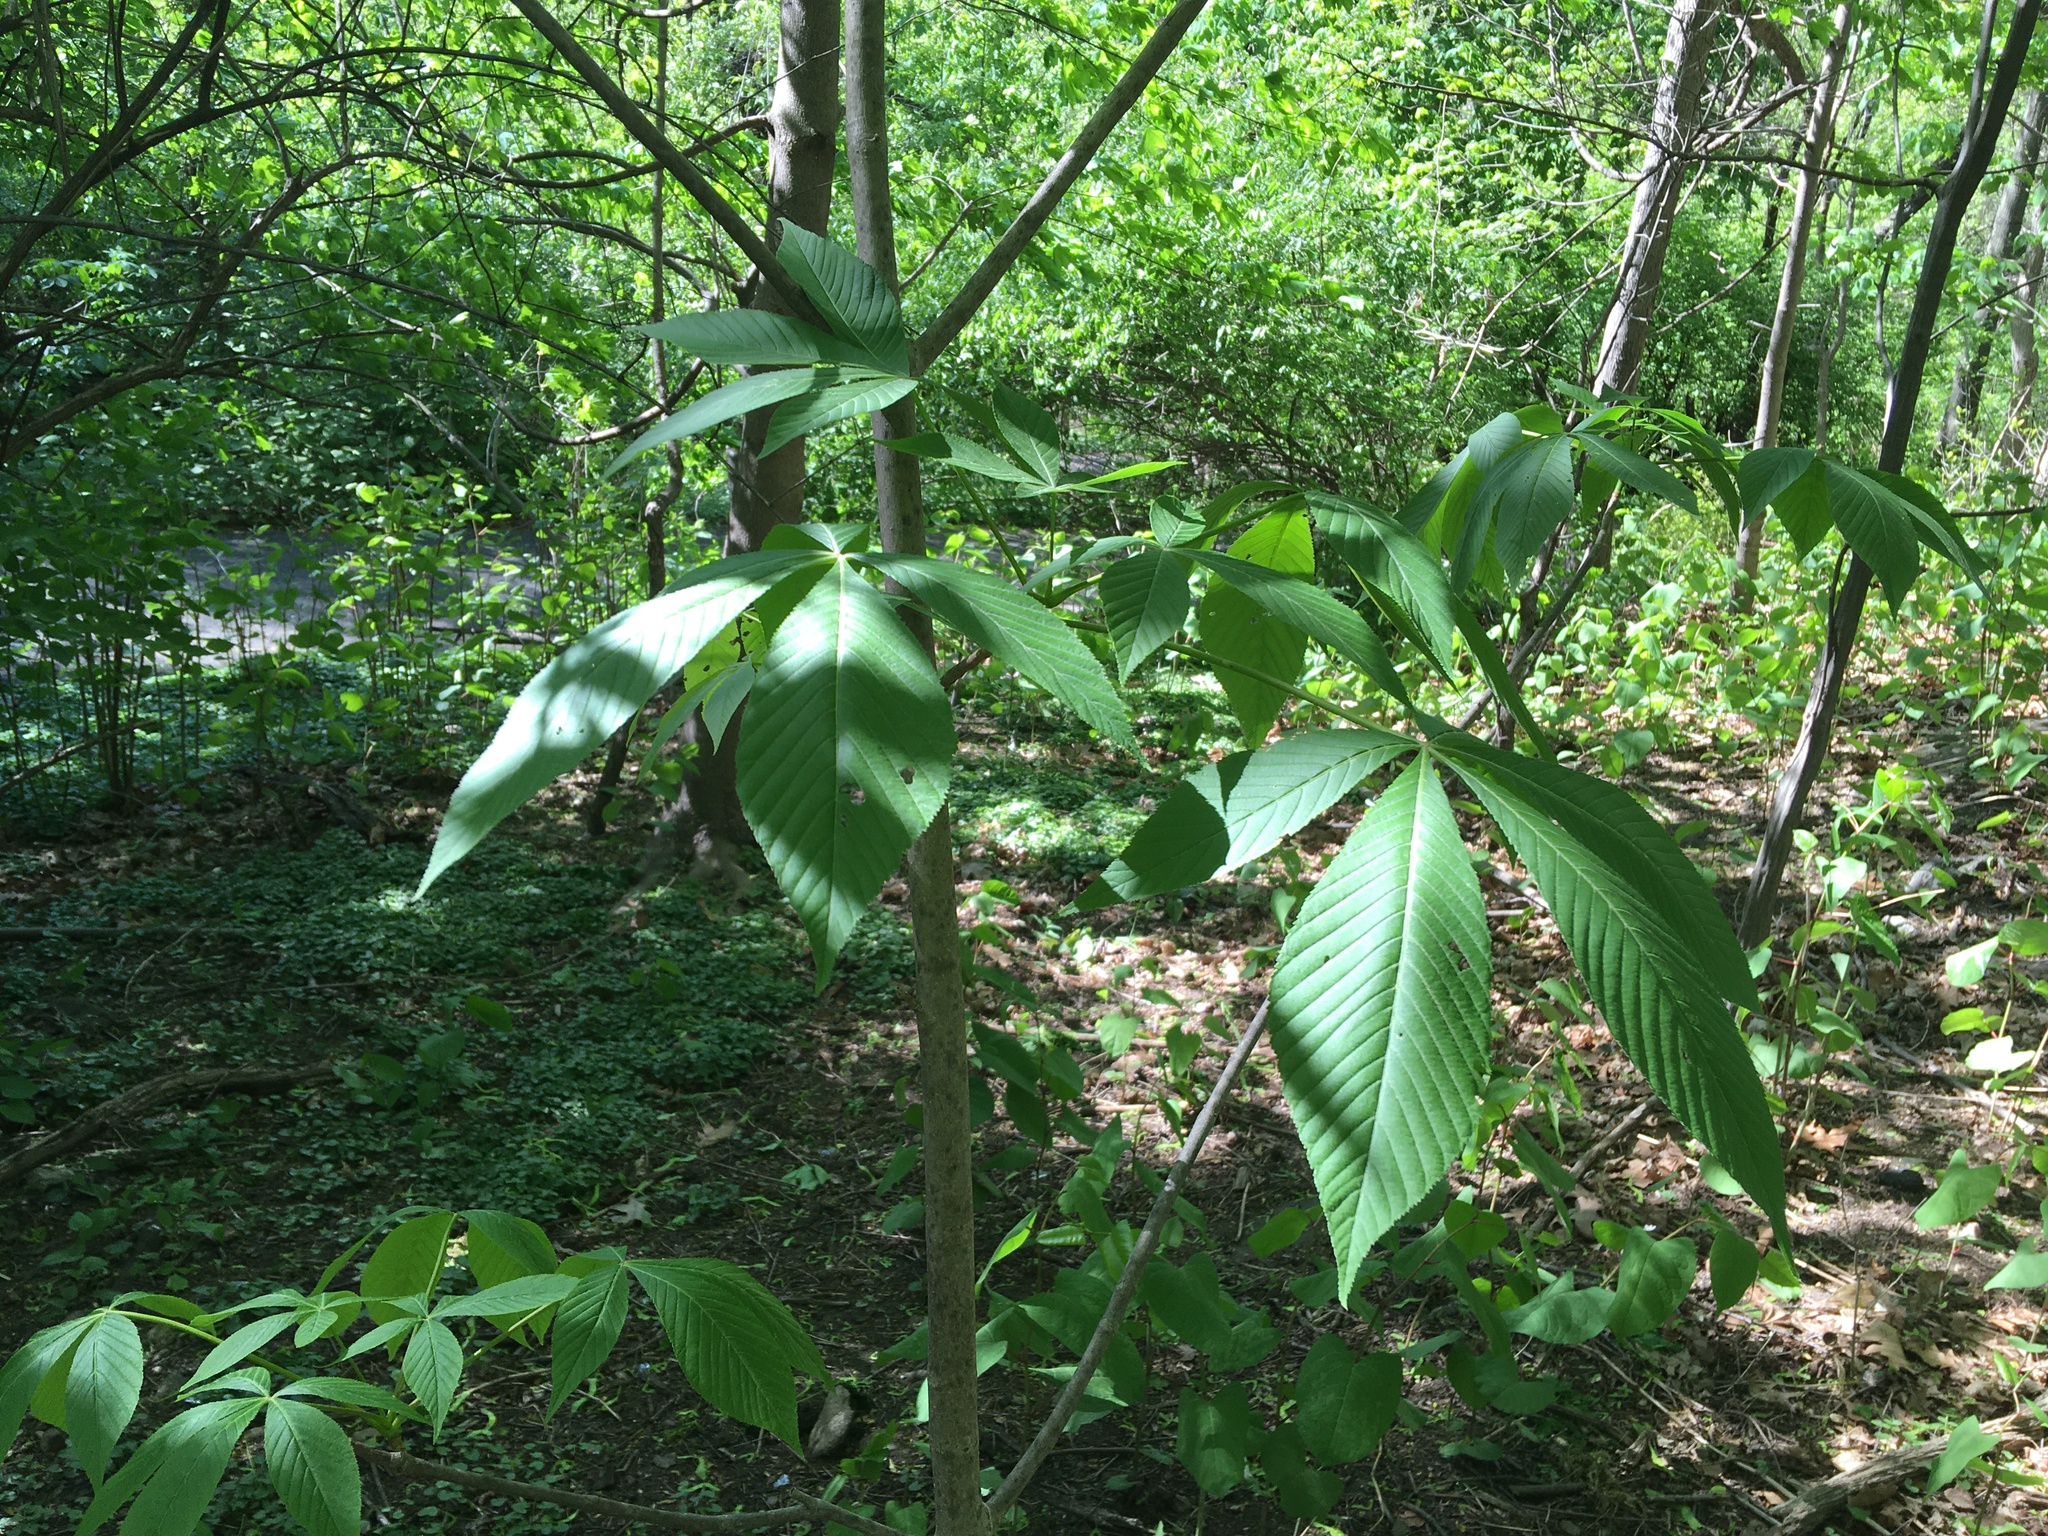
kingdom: Plantae
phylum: Tracheophyta
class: Magnoliopsida
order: Sapindales
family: Sapindaceae
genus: Aesculus
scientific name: Aesculus flava
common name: Yellow buckeye
